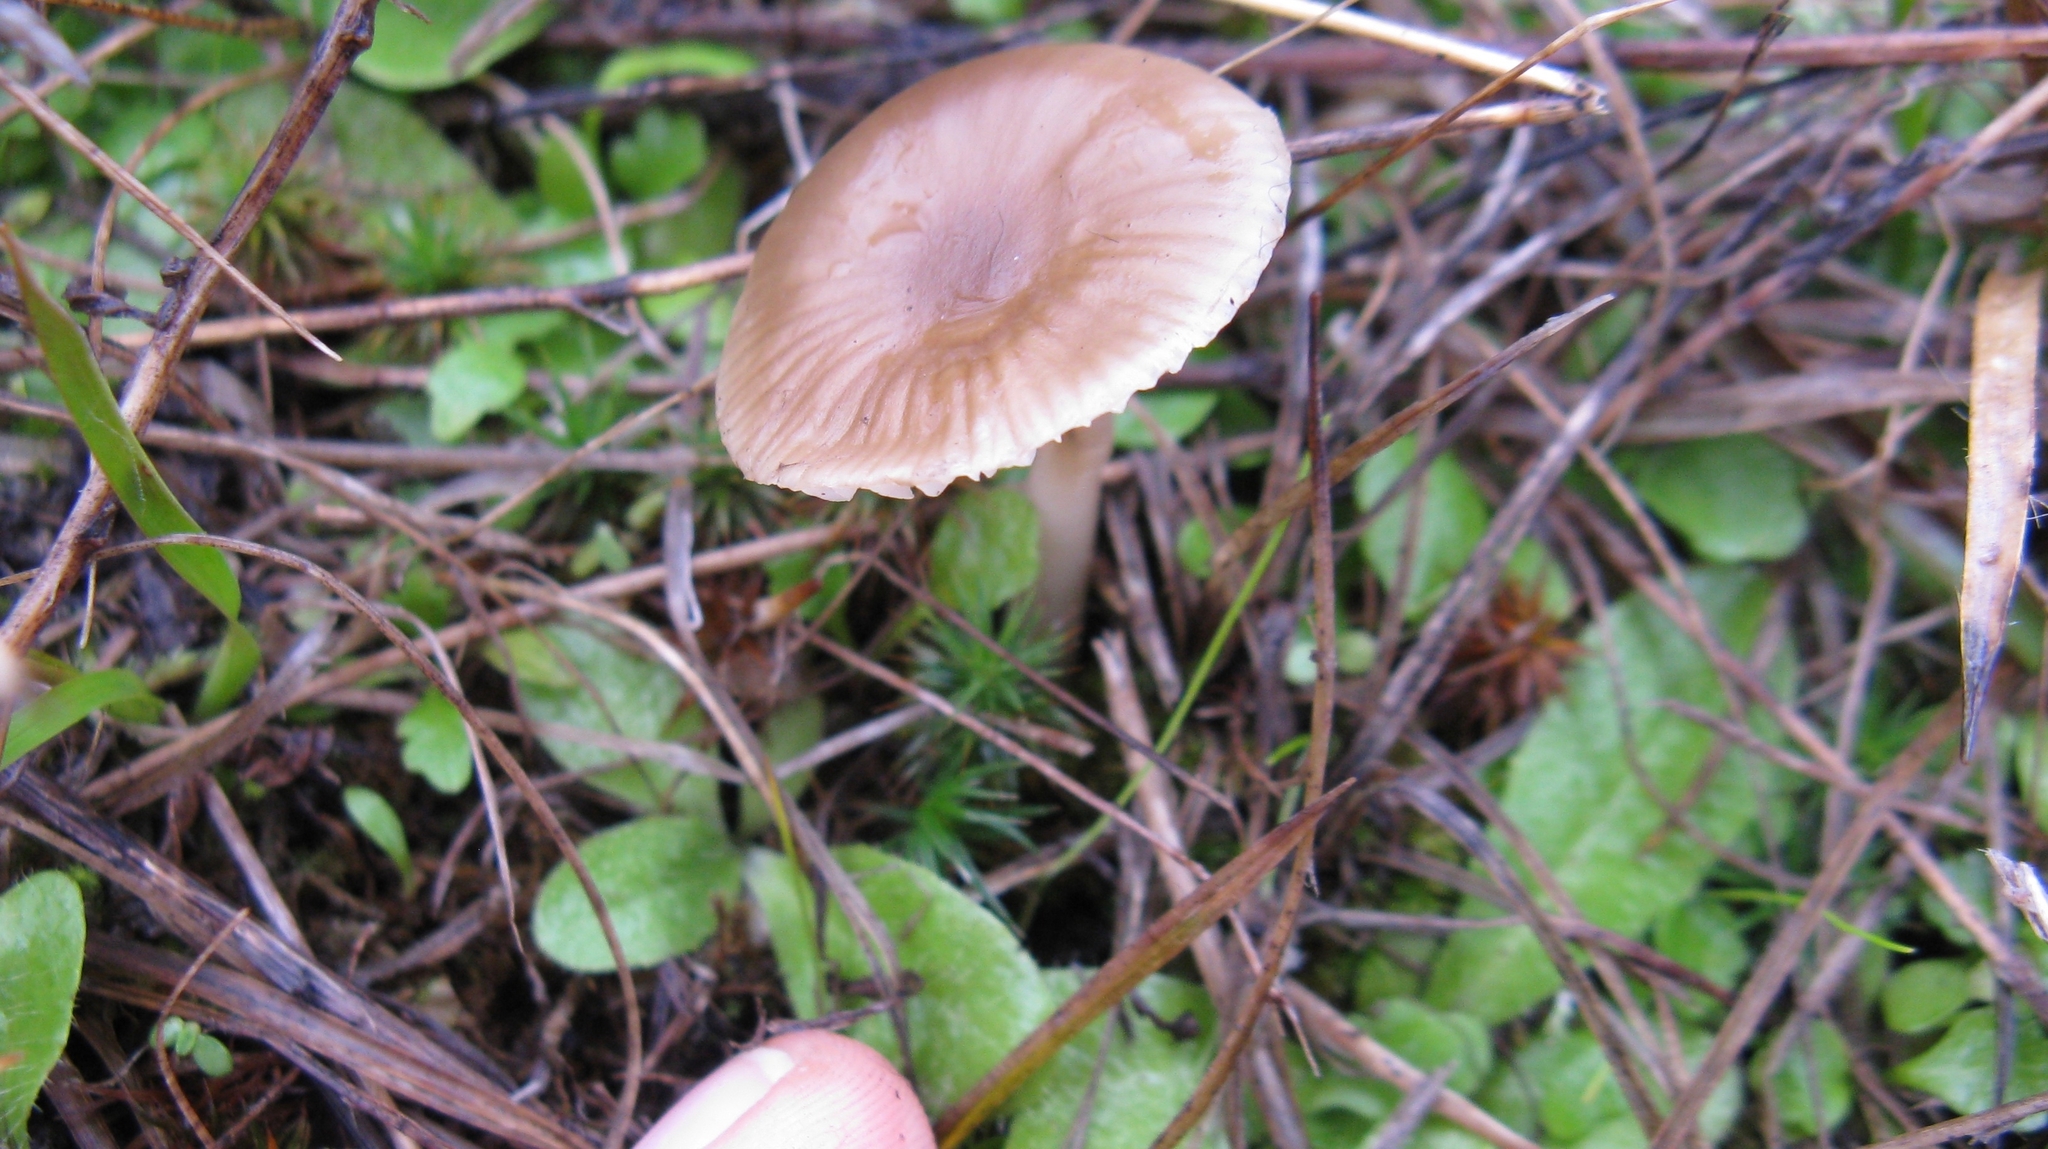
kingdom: Fungi
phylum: Basidiomycota
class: Agaricomycetes
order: Agaricales
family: Hygrophoraceae
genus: Cuphophyllus
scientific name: Cuphophyllus recurvatus
